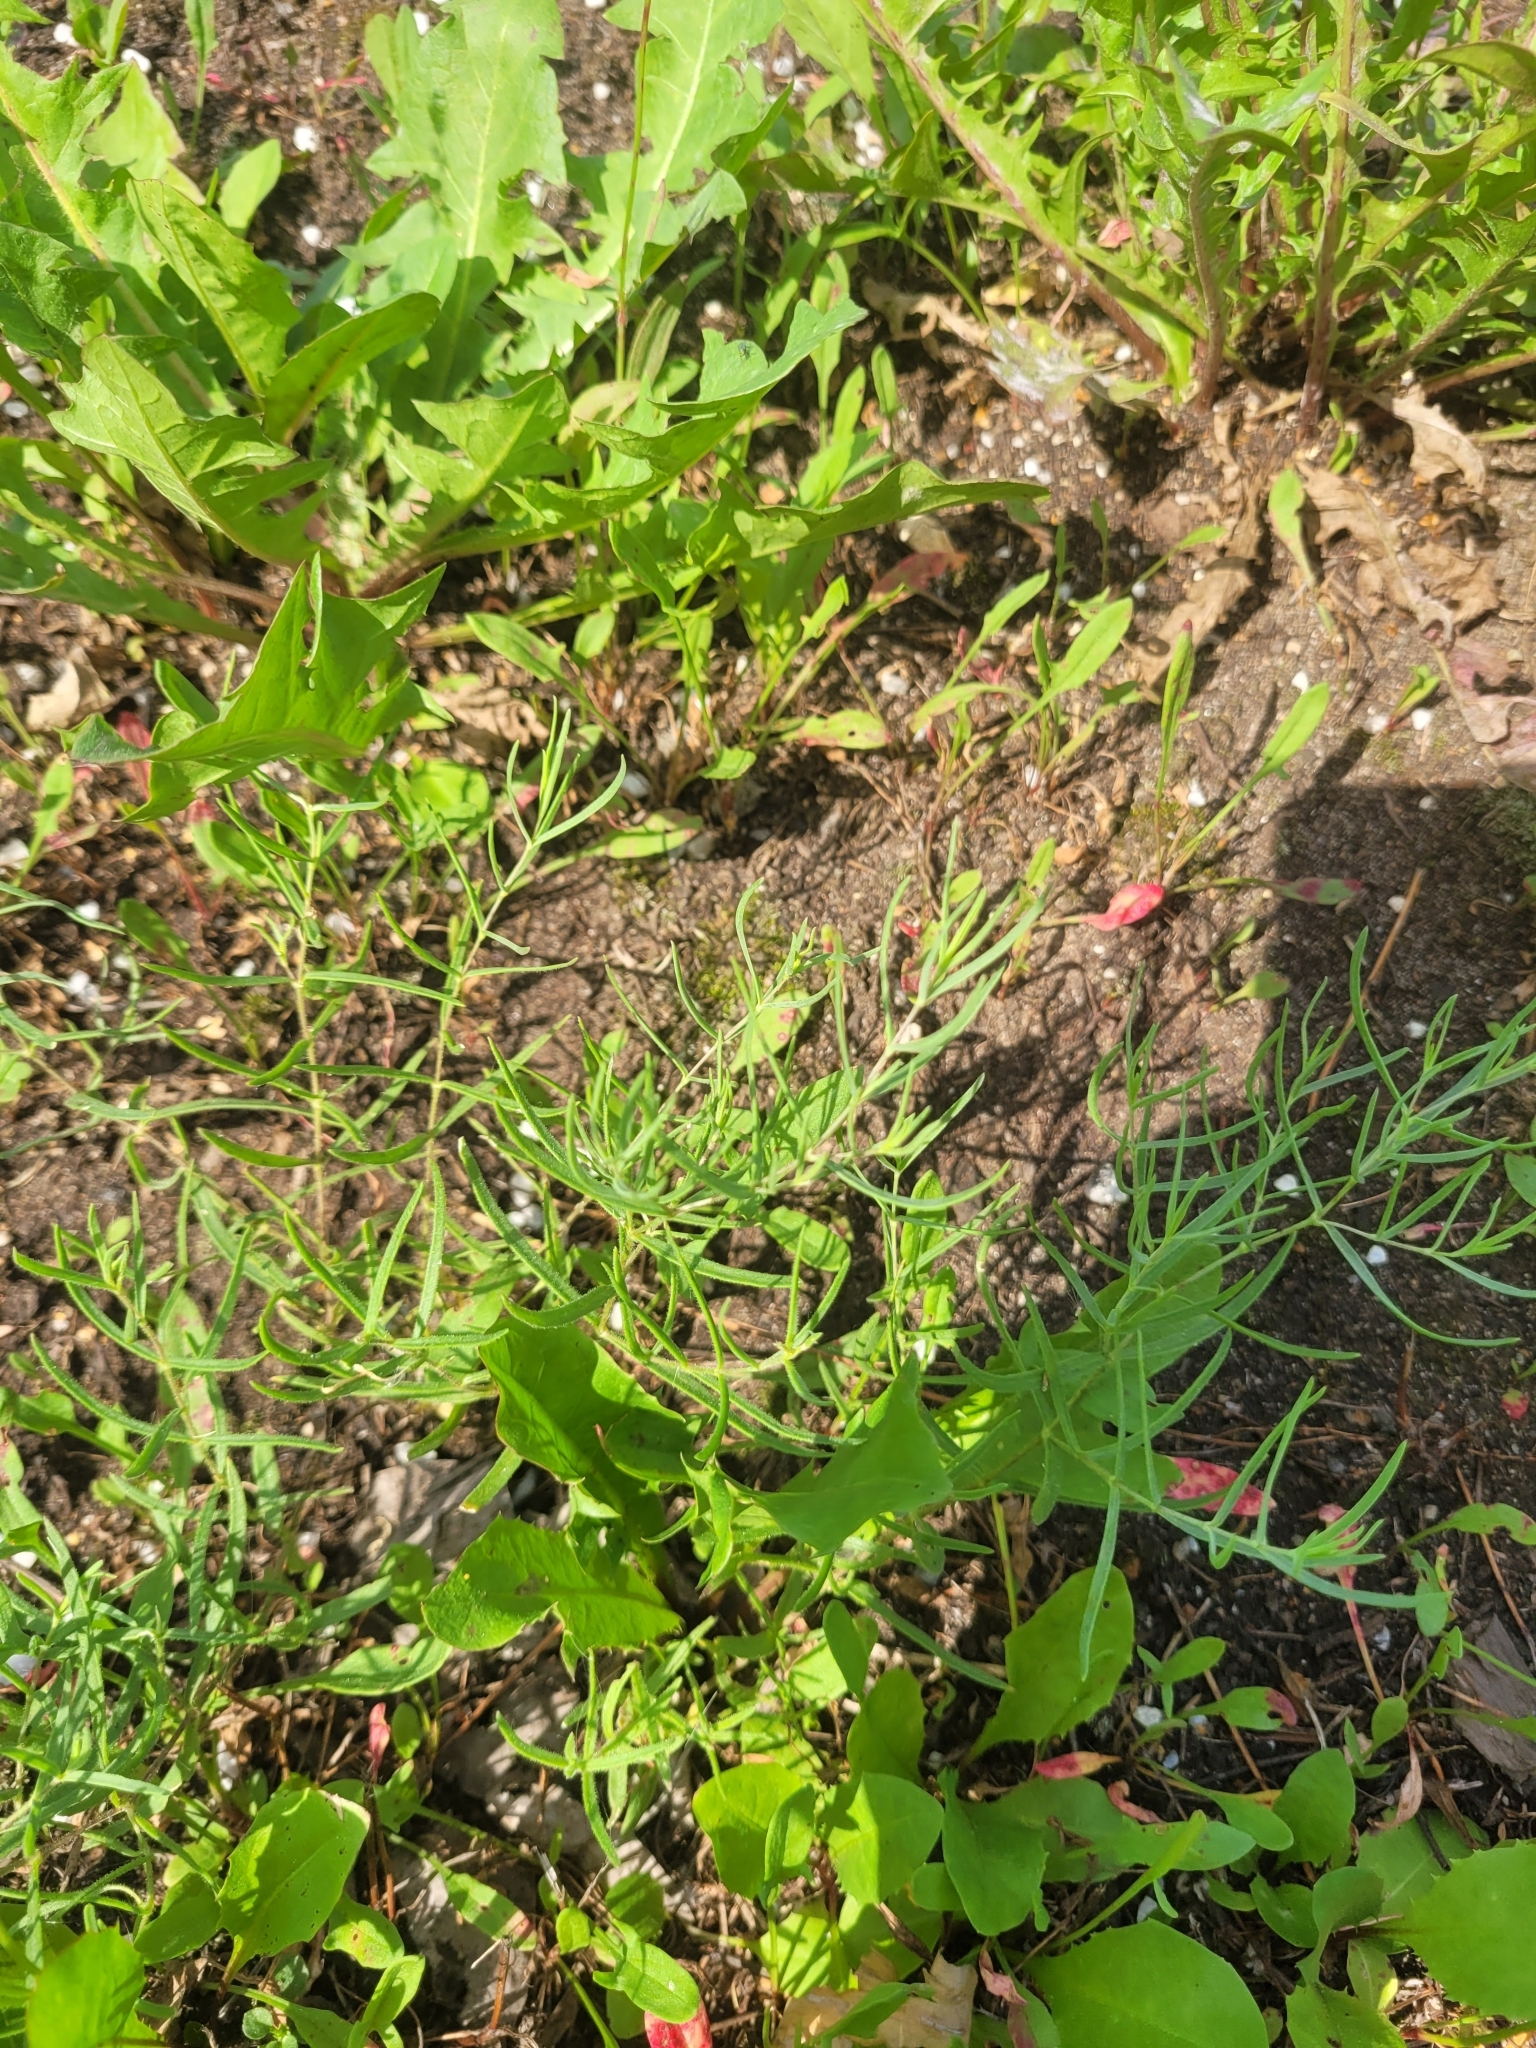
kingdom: Plantae
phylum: Tracheophyta
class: Magnoliopsida
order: Caryophyllales
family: Caryophyllaceae
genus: Gypsophila
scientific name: Gypsophila paniculata
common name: Baby's-breath
